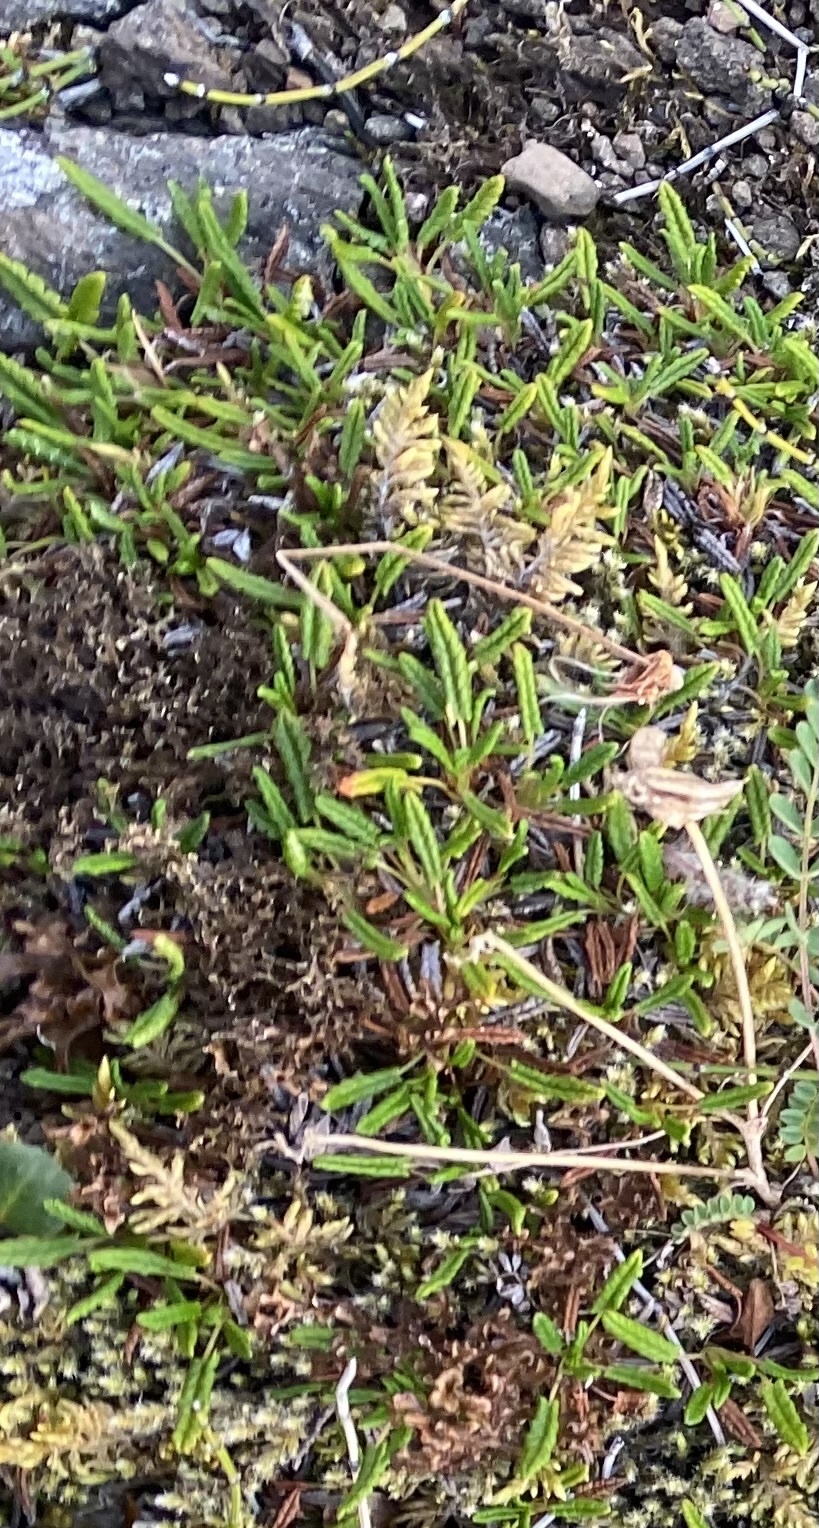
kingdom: Plantae
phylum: Tracheophyta
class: Magnoliopsida
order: Rosales
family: Rosaceae
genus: Dryas
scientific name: Dryas octopetala
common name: Eight-petal mountain-avens
